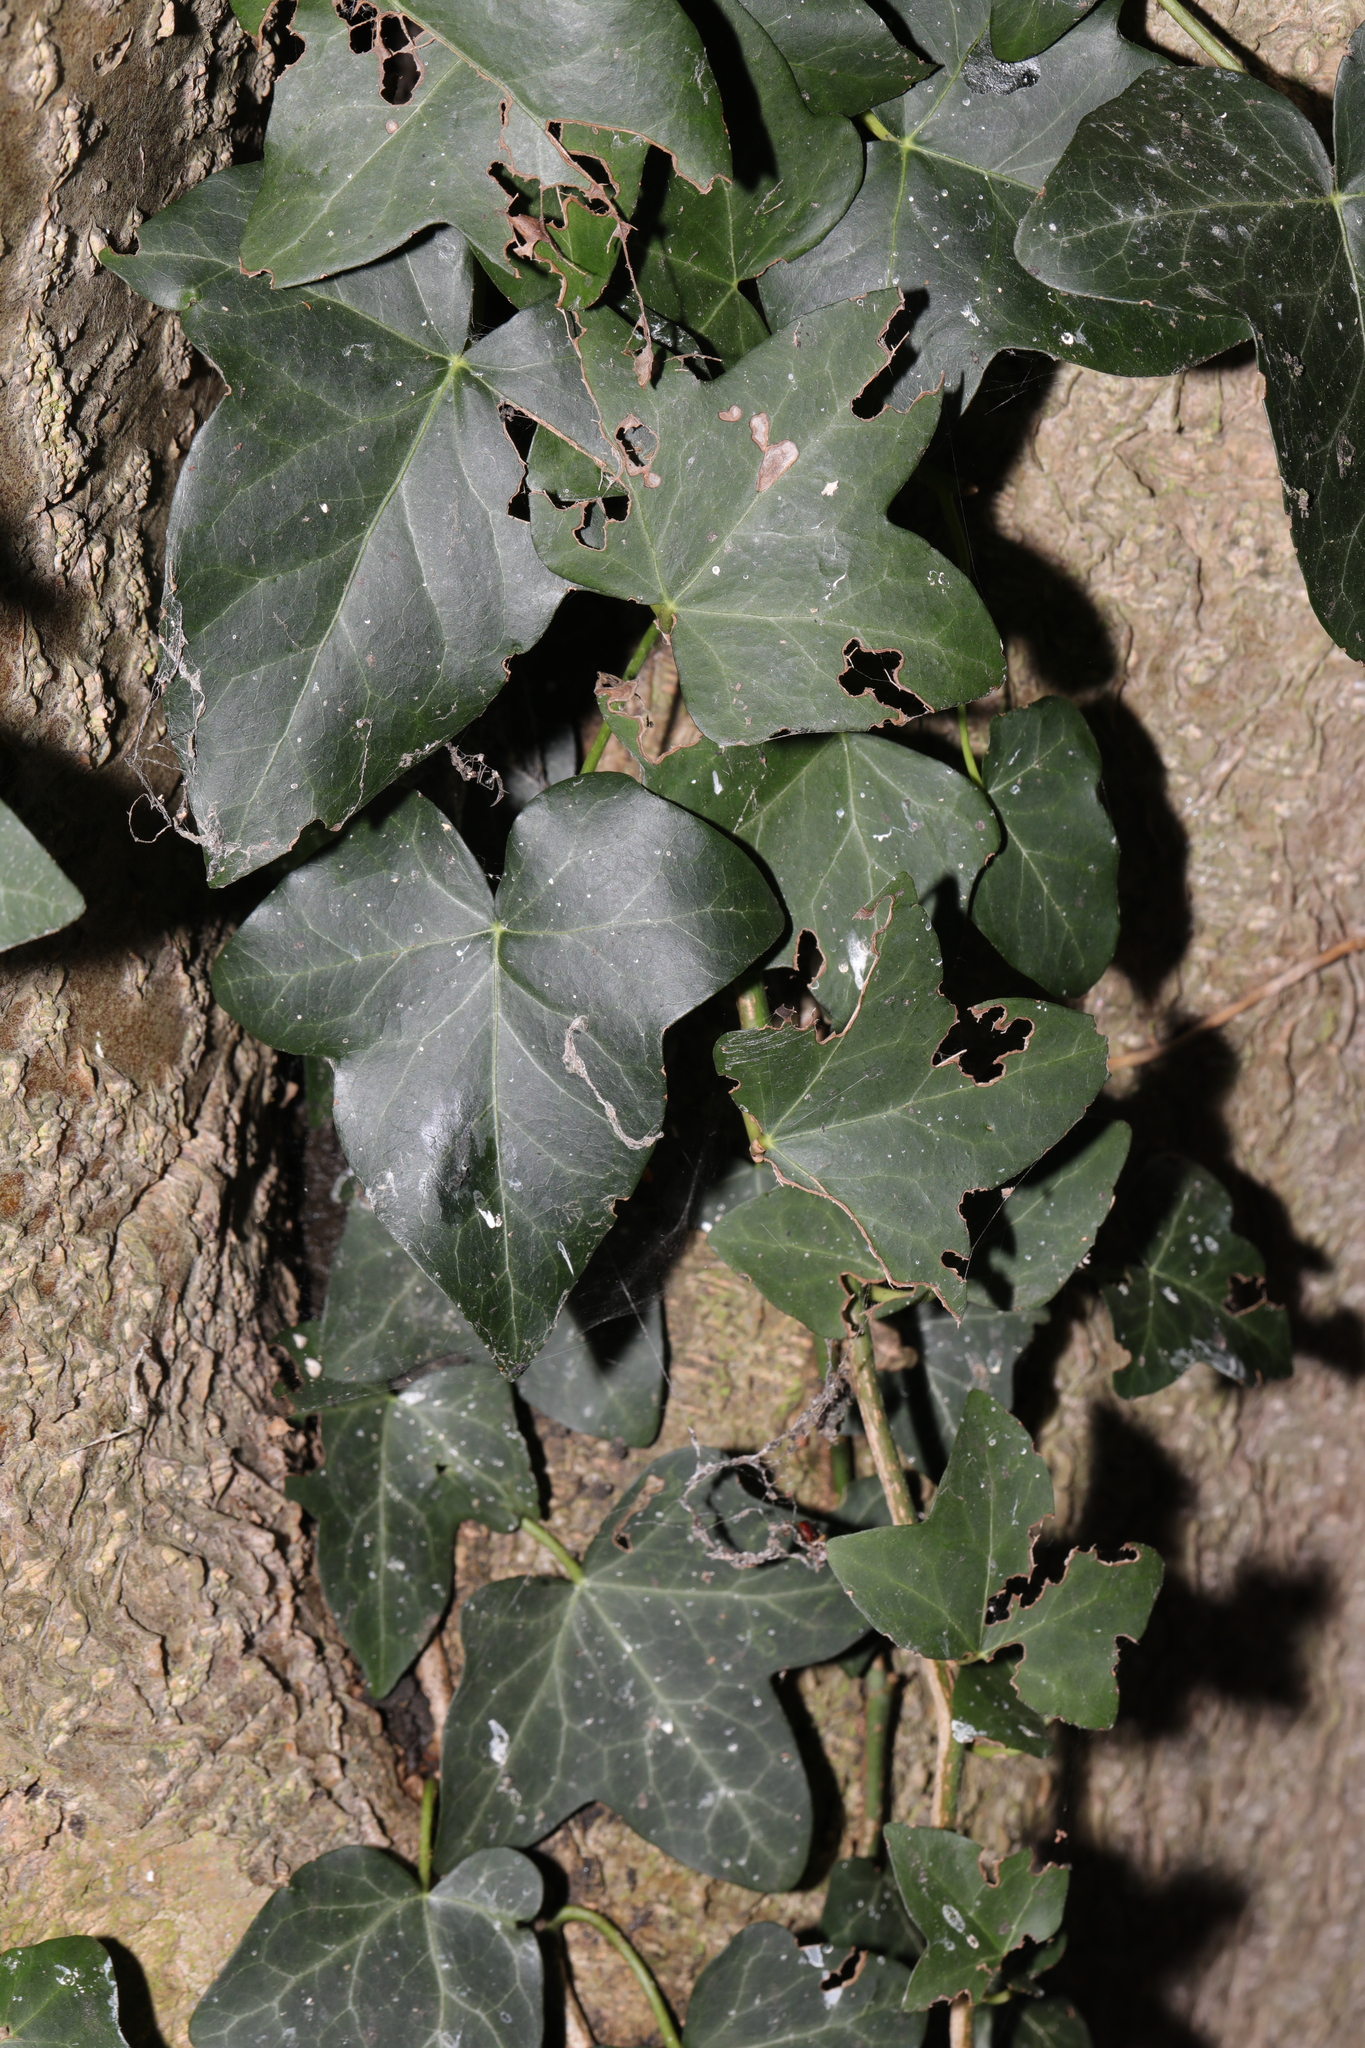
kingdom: Plantae
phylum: Tracheophyta
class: Magnoliopsida
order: Apiales
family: Araliaceae
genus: Hedera
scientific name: Hedera helix
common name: Ivy
